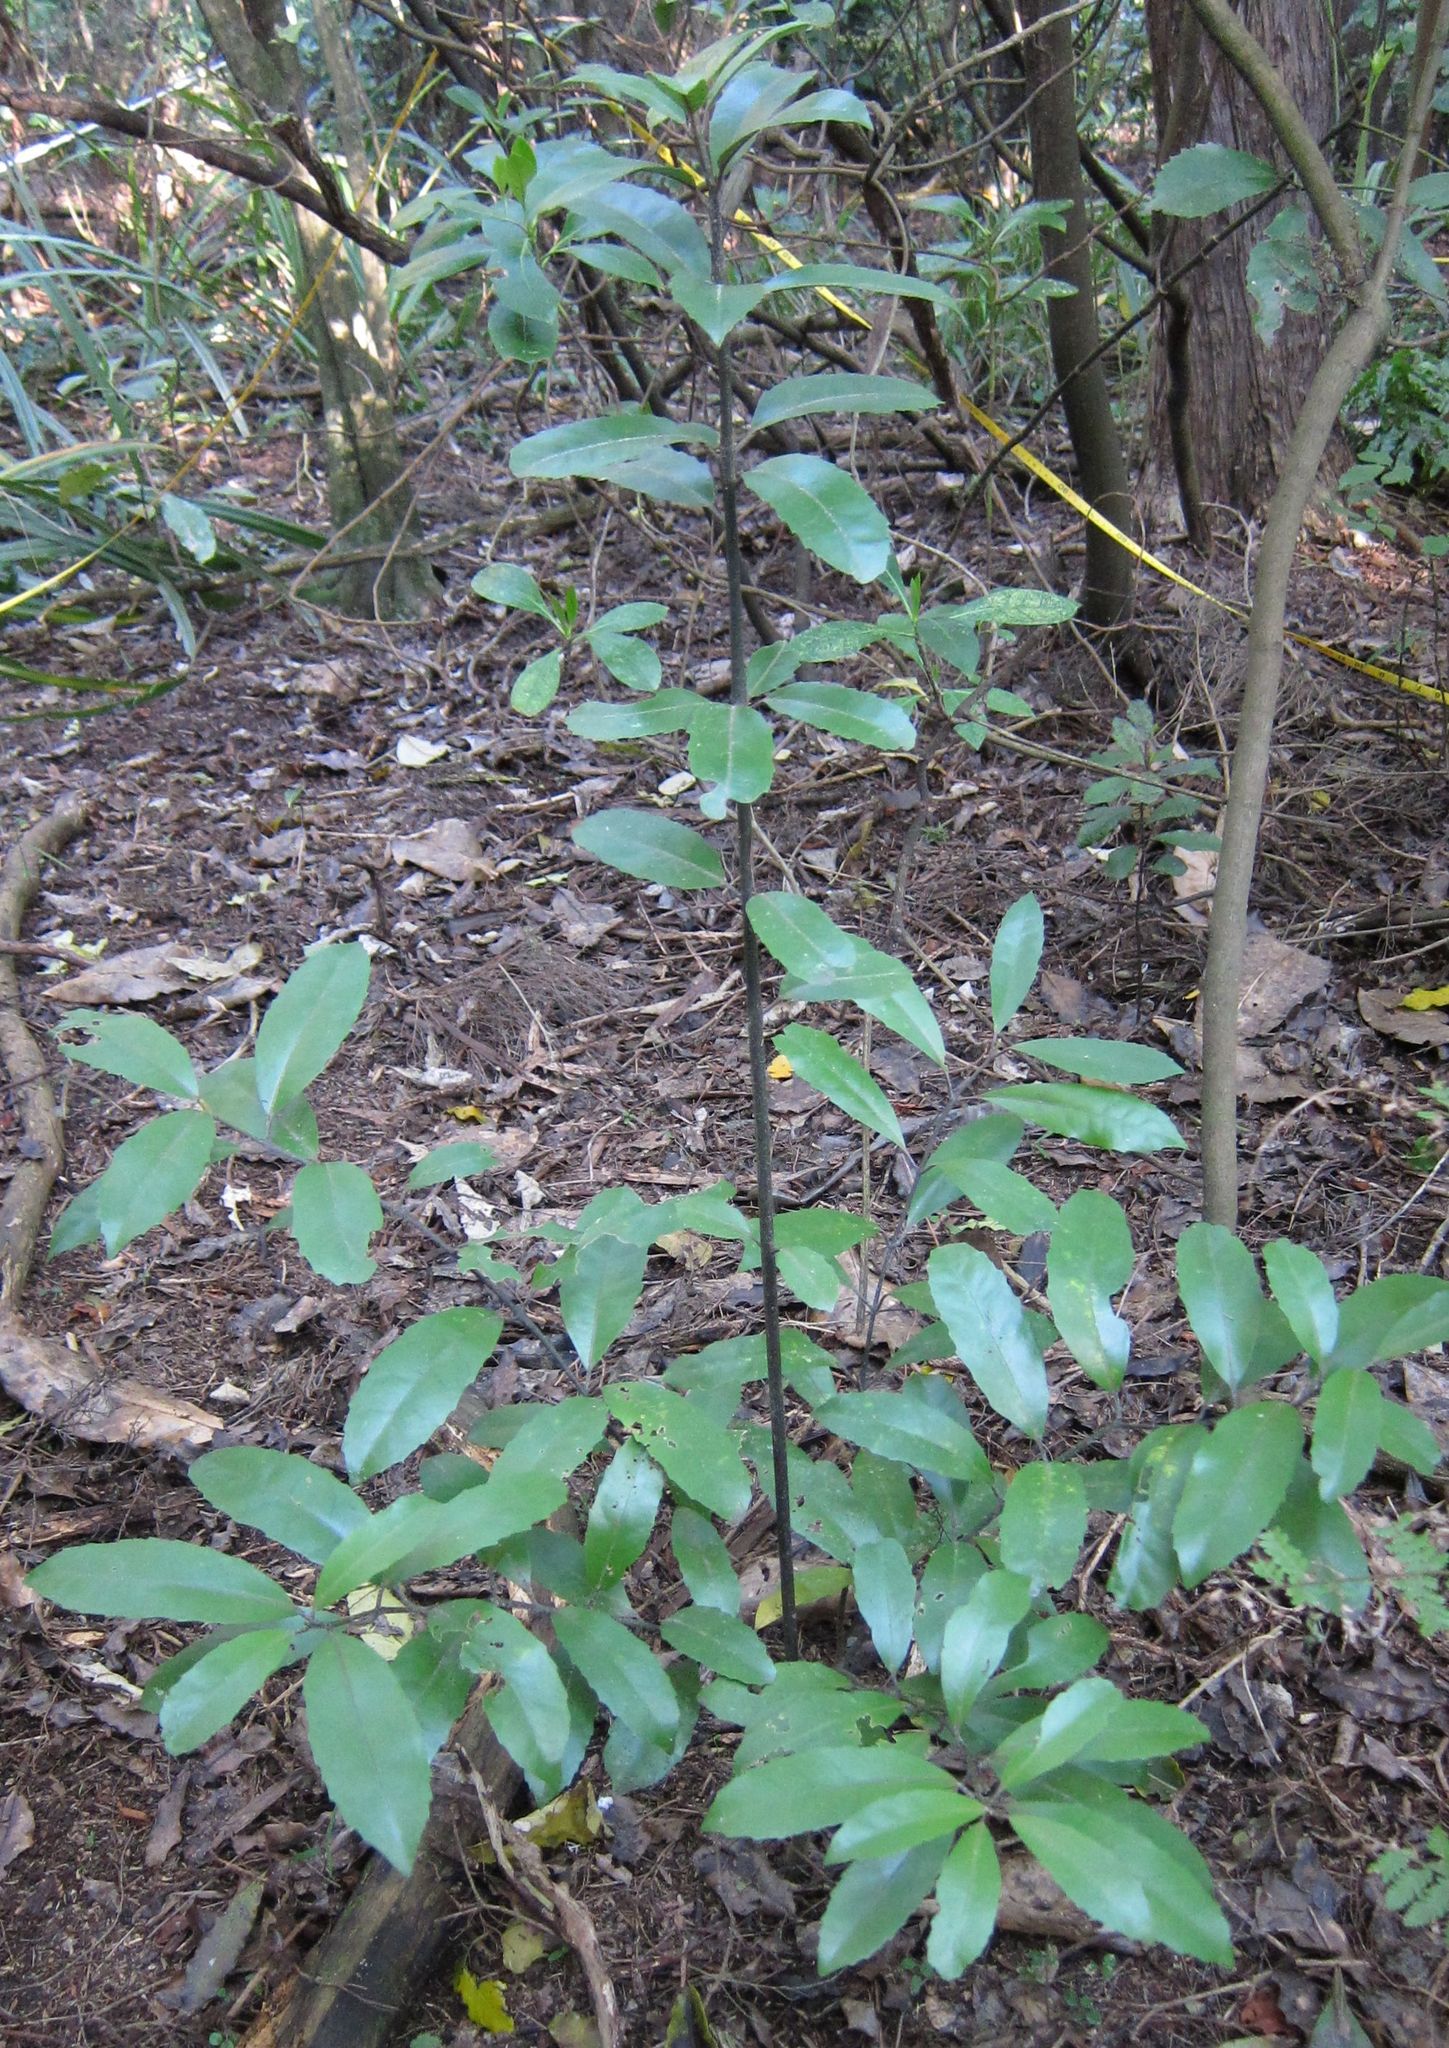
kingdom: Plantae
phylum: Tracheophyta
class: Magnoliopsida
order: Laurales
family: Monimiaceae
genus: Hedycarya
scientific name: Hedycarya arborea
